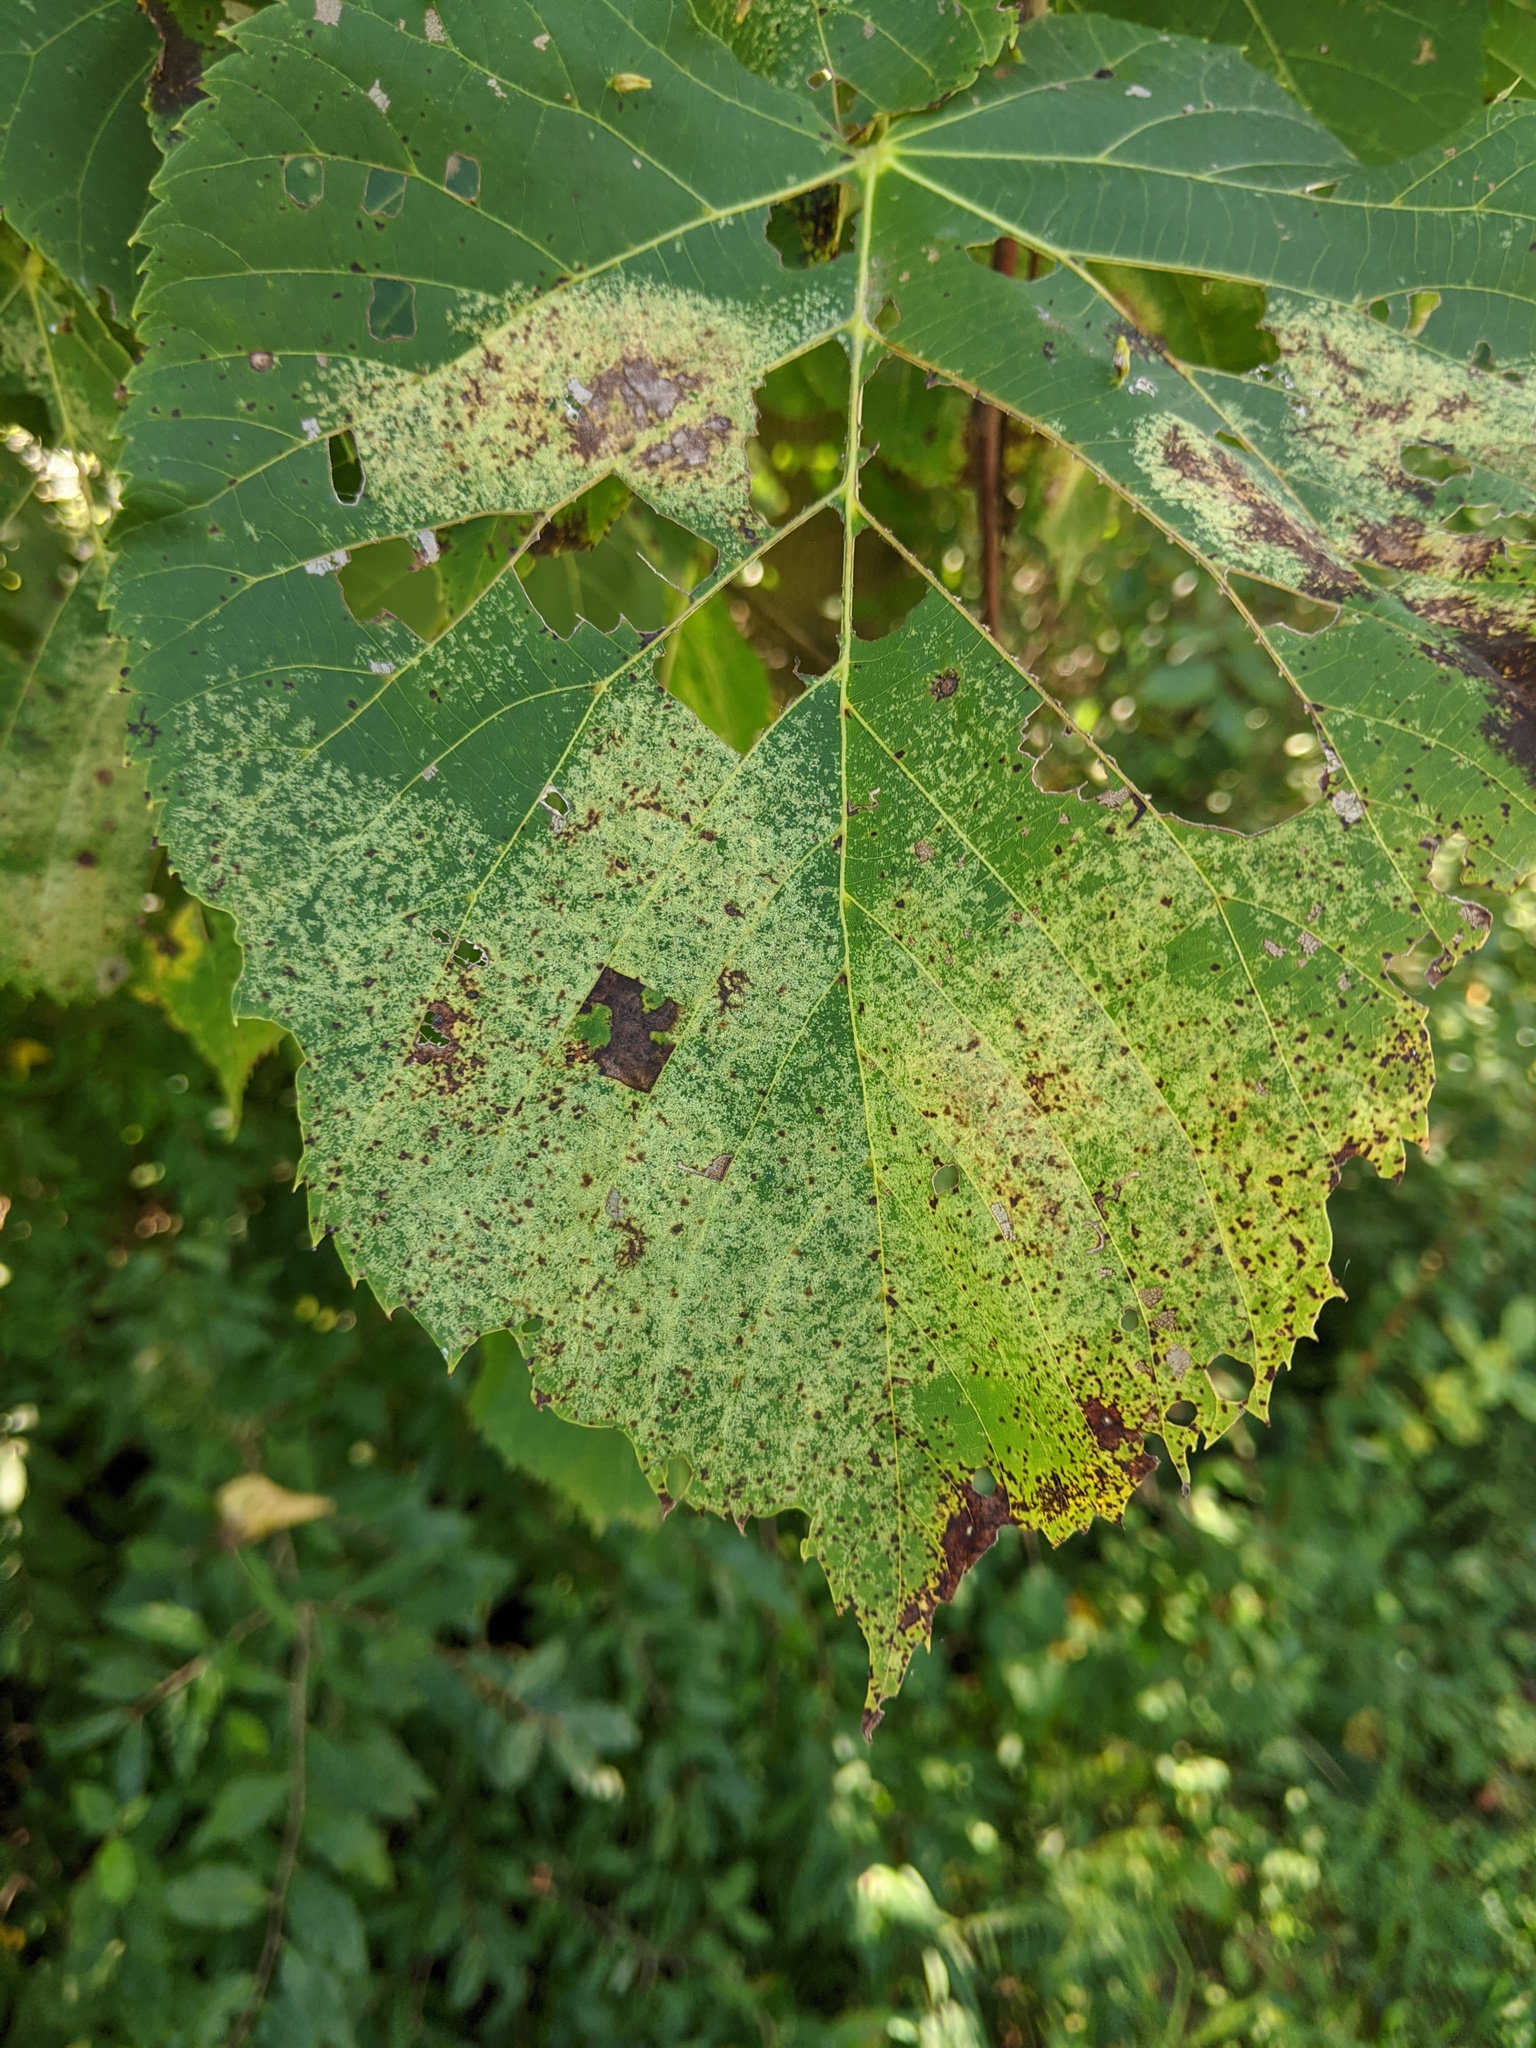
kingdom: Animalia
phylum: Arthropoda
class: Insecta
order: Hemiptera
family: Tingidae
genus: Gargaphia
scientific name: Gargaphia tiliae
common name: Basswood lace bug
